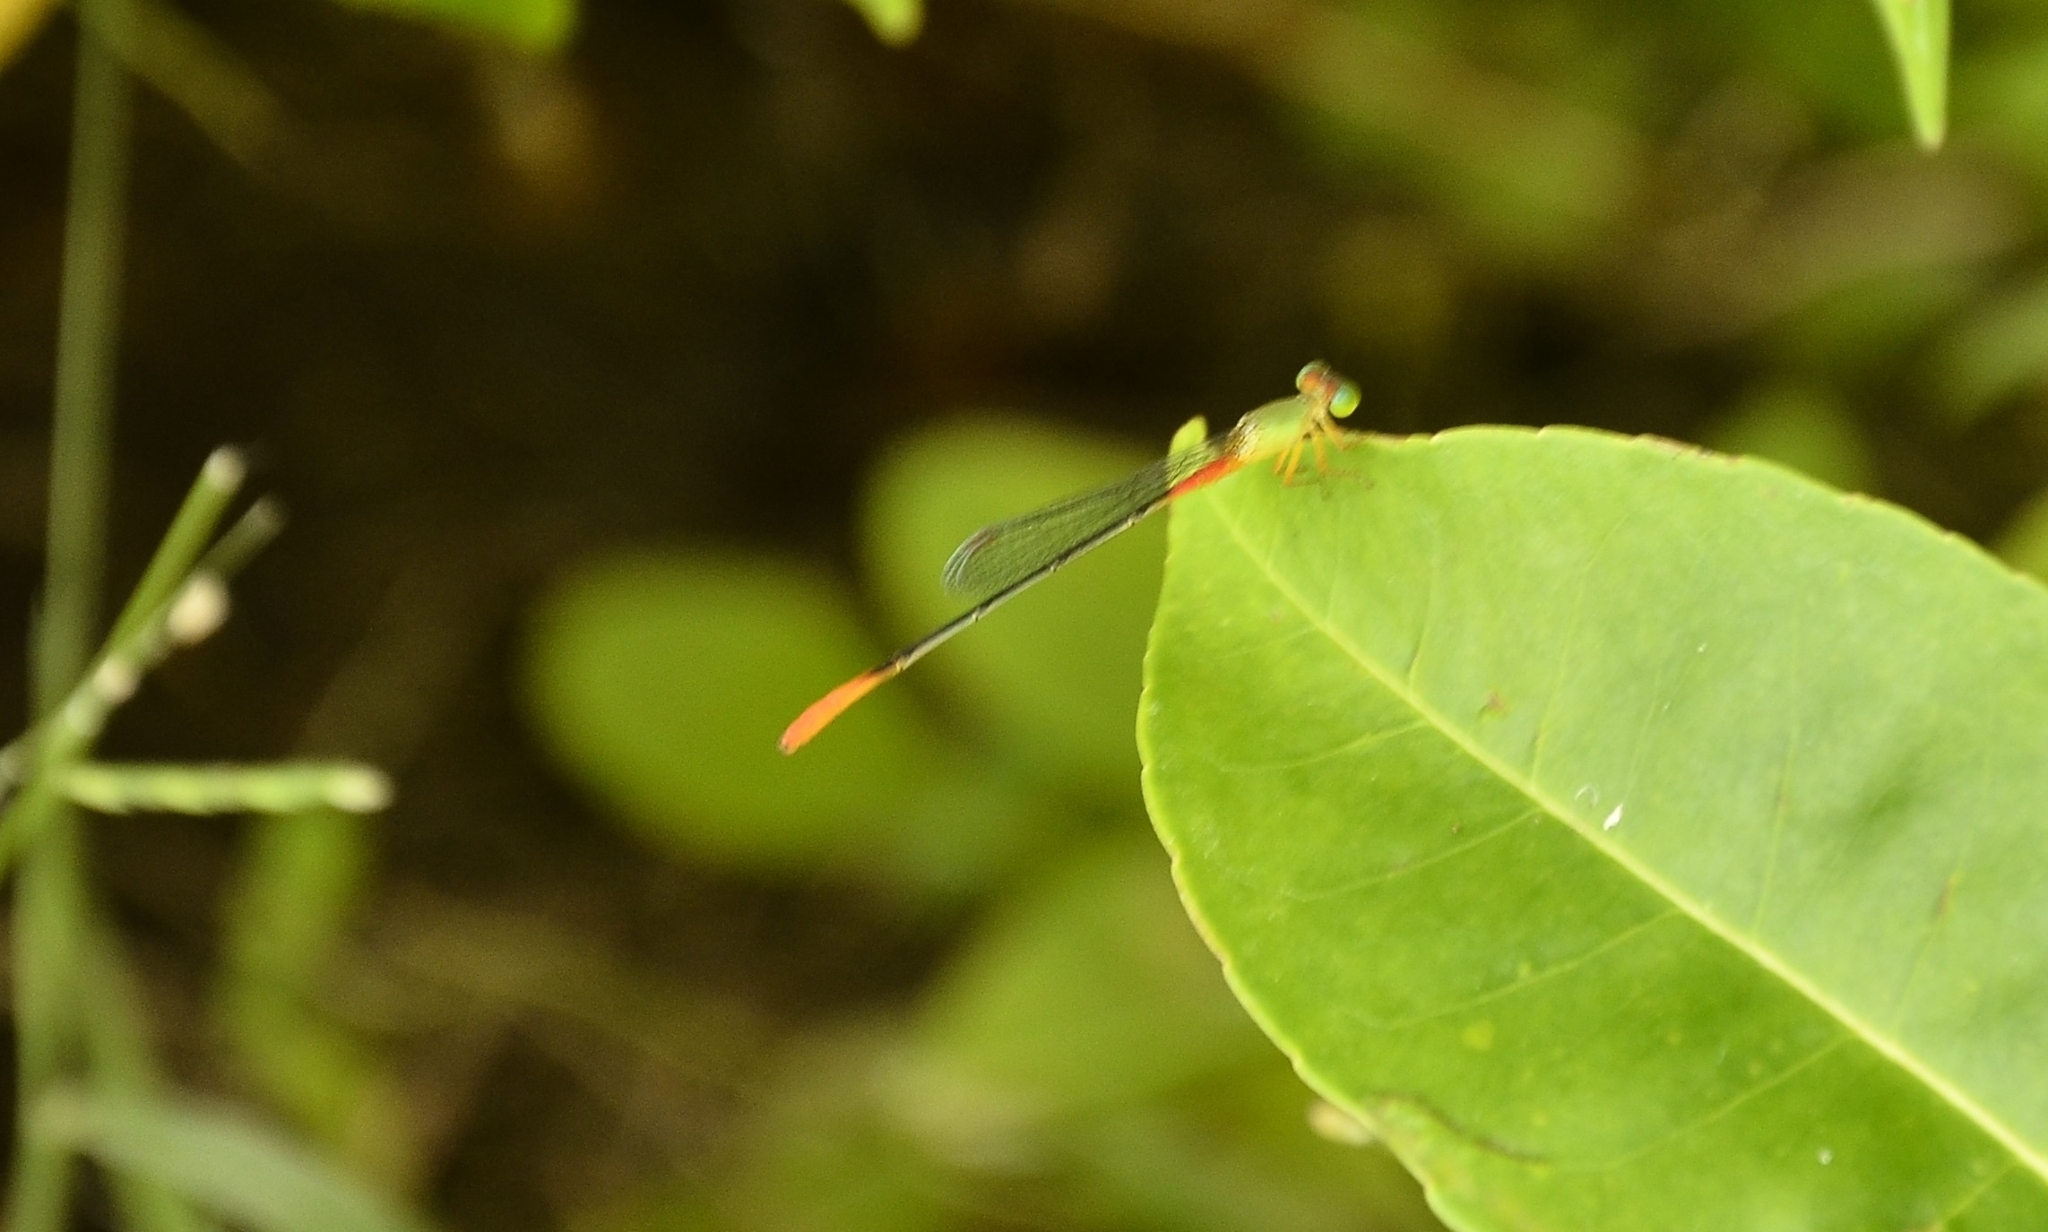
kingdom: Animalia
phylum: Arthropoda
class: Insecta
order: Odonata
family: Coenagrionidae
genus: Ceriagrion
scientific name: Ceriagrion cerinorubellum
